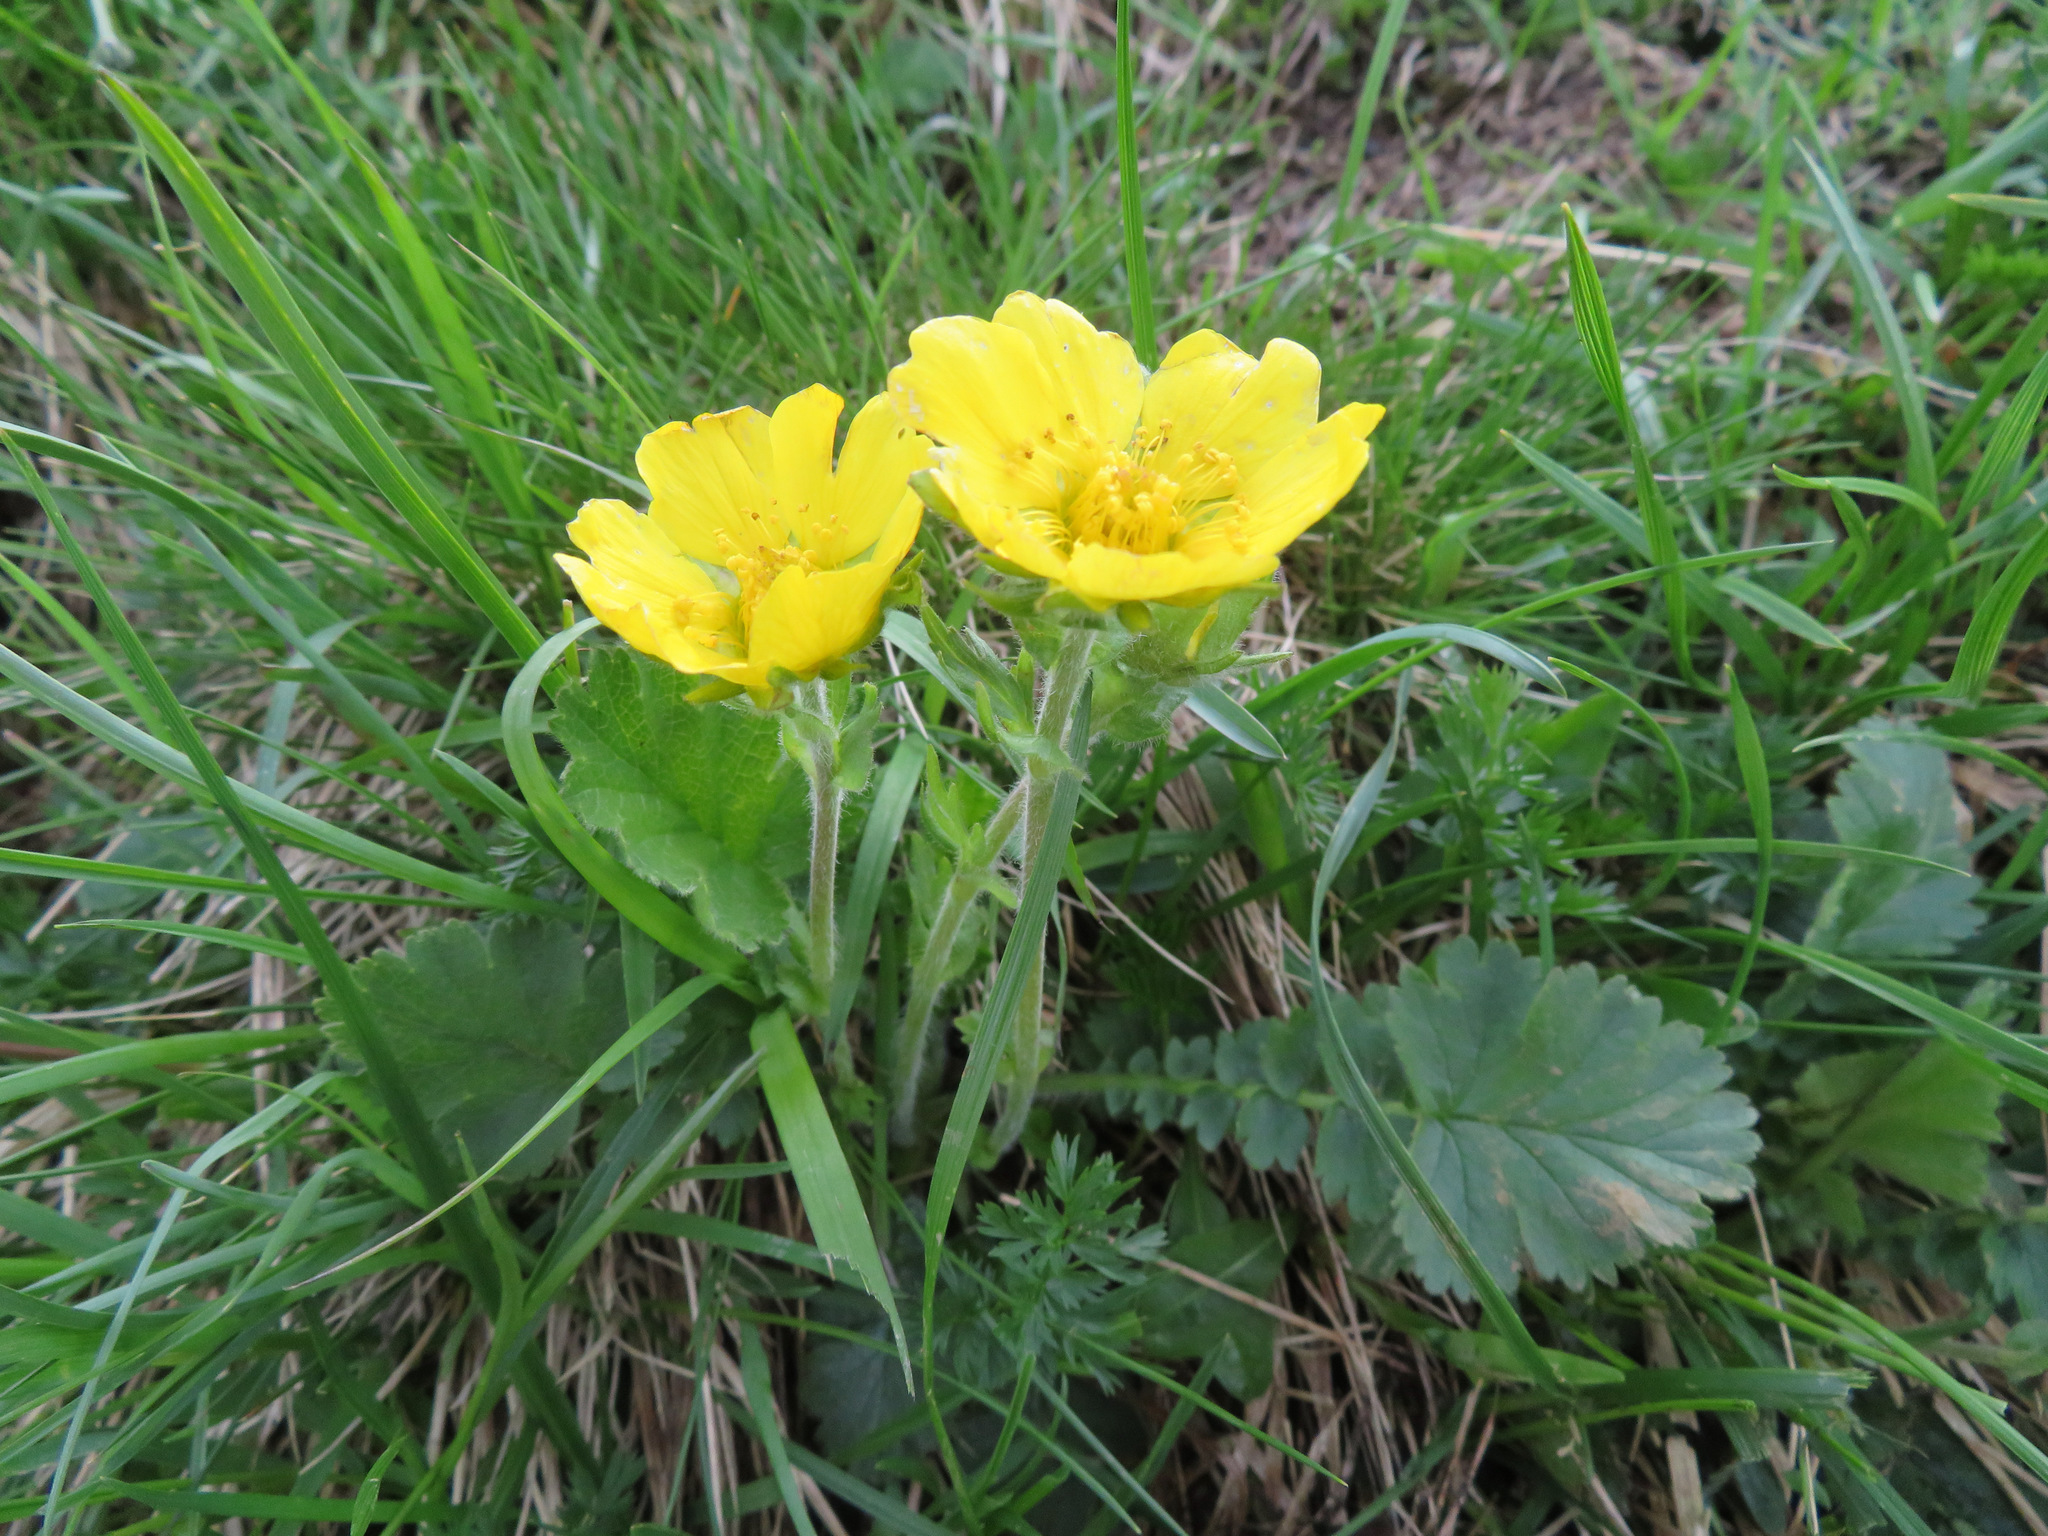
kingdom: Plantae
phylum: Tracheophyta
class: Magnoliopsida
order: Rosales
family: Rosaceae
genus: Geum
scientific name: Geum montanum
